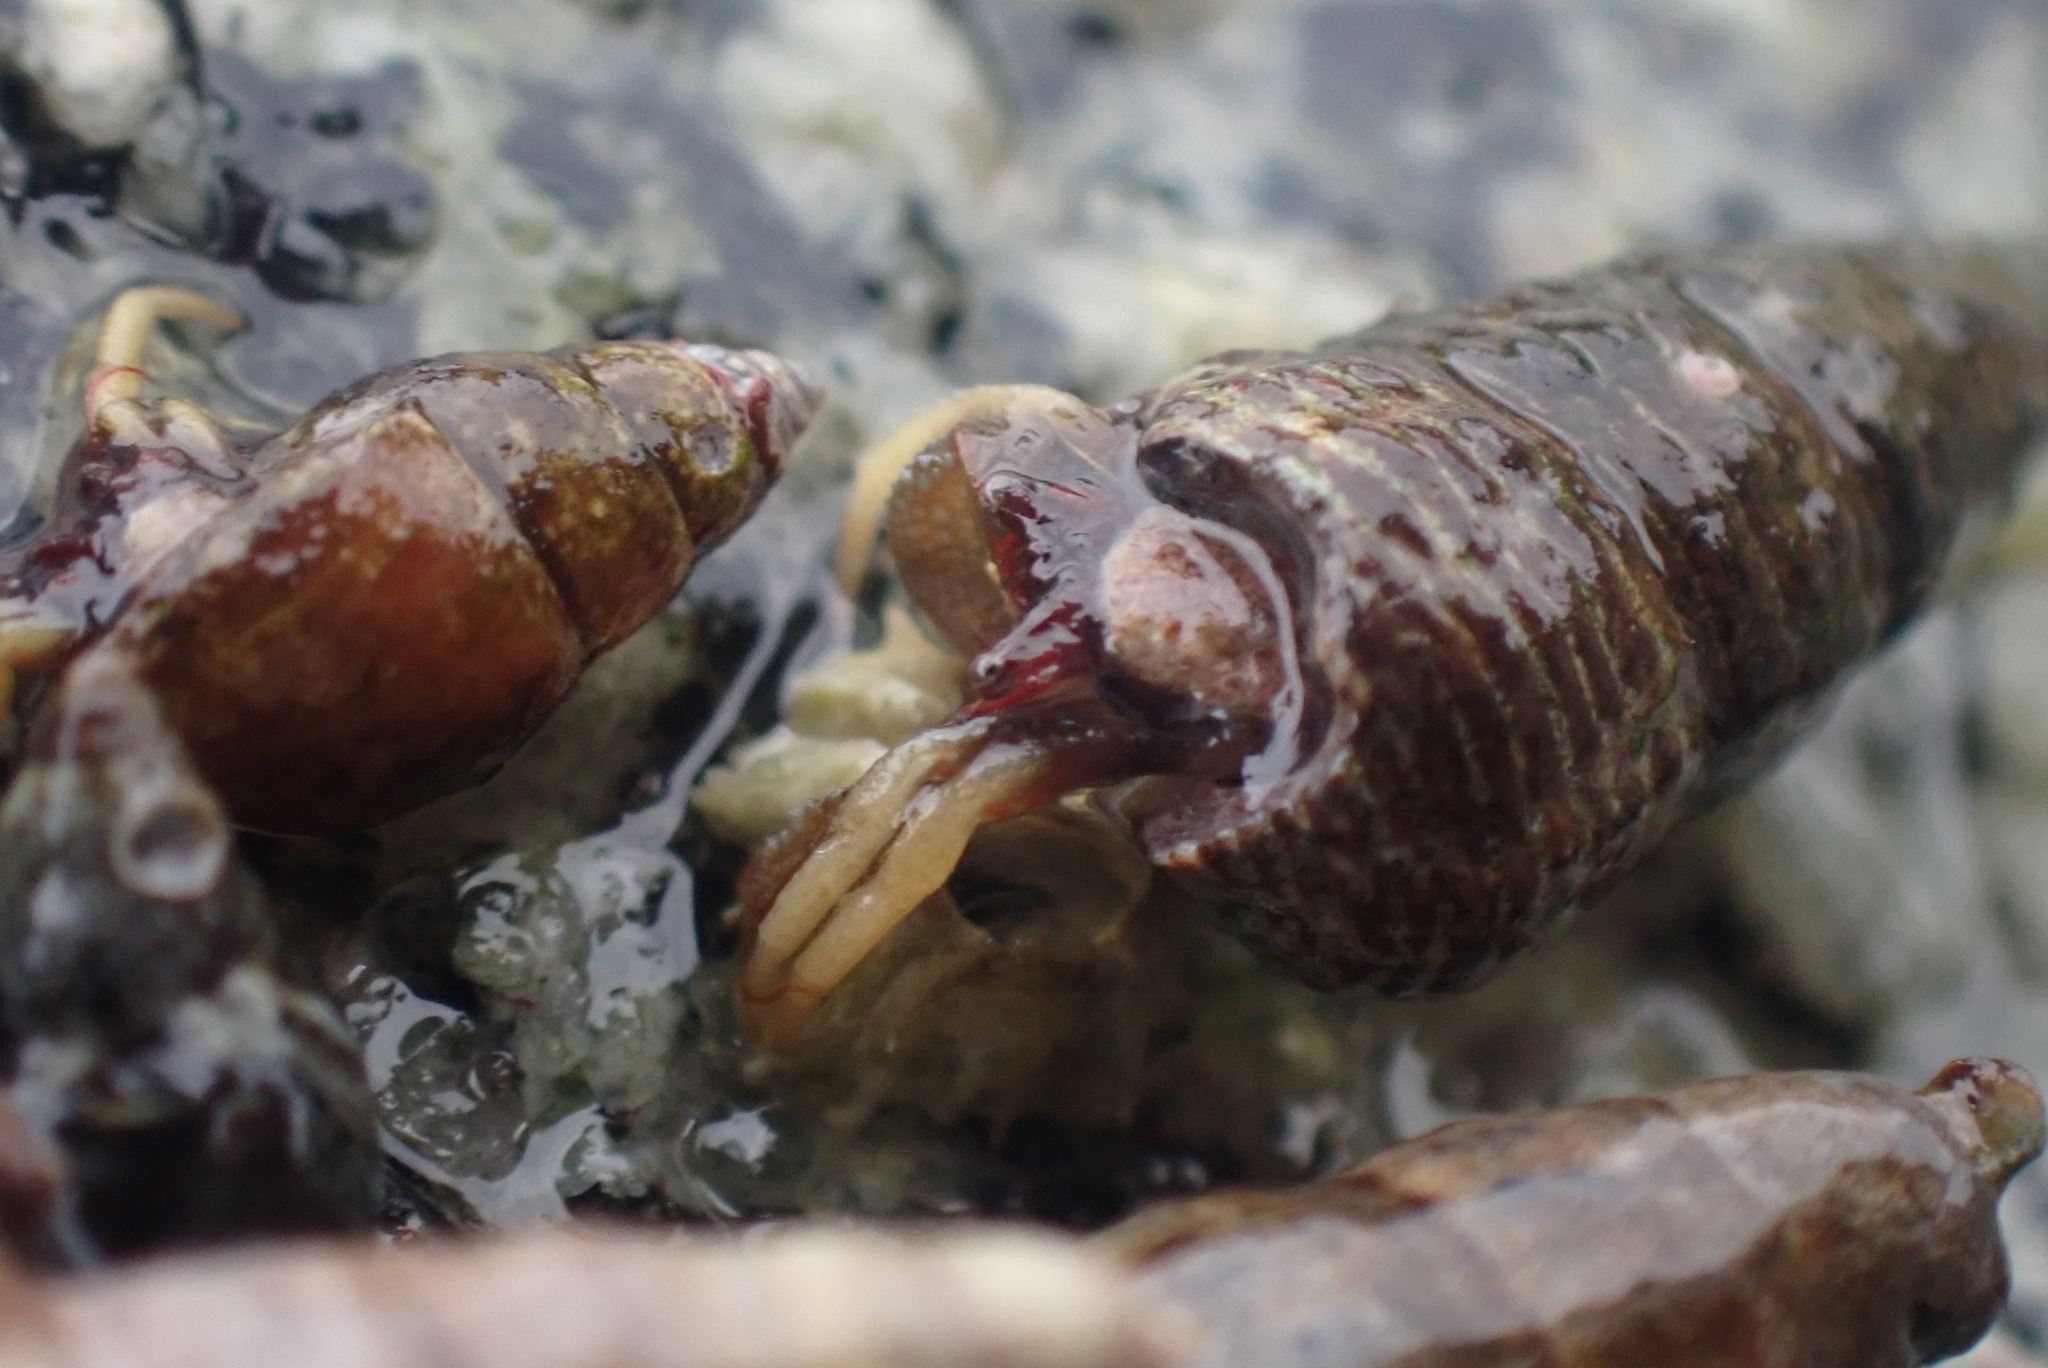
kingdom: Animalia
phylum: Arthropoda
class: Malacostraca
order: Decapoda
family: Paguridae
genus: Pagurus
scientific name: Pagurus granosimanus
